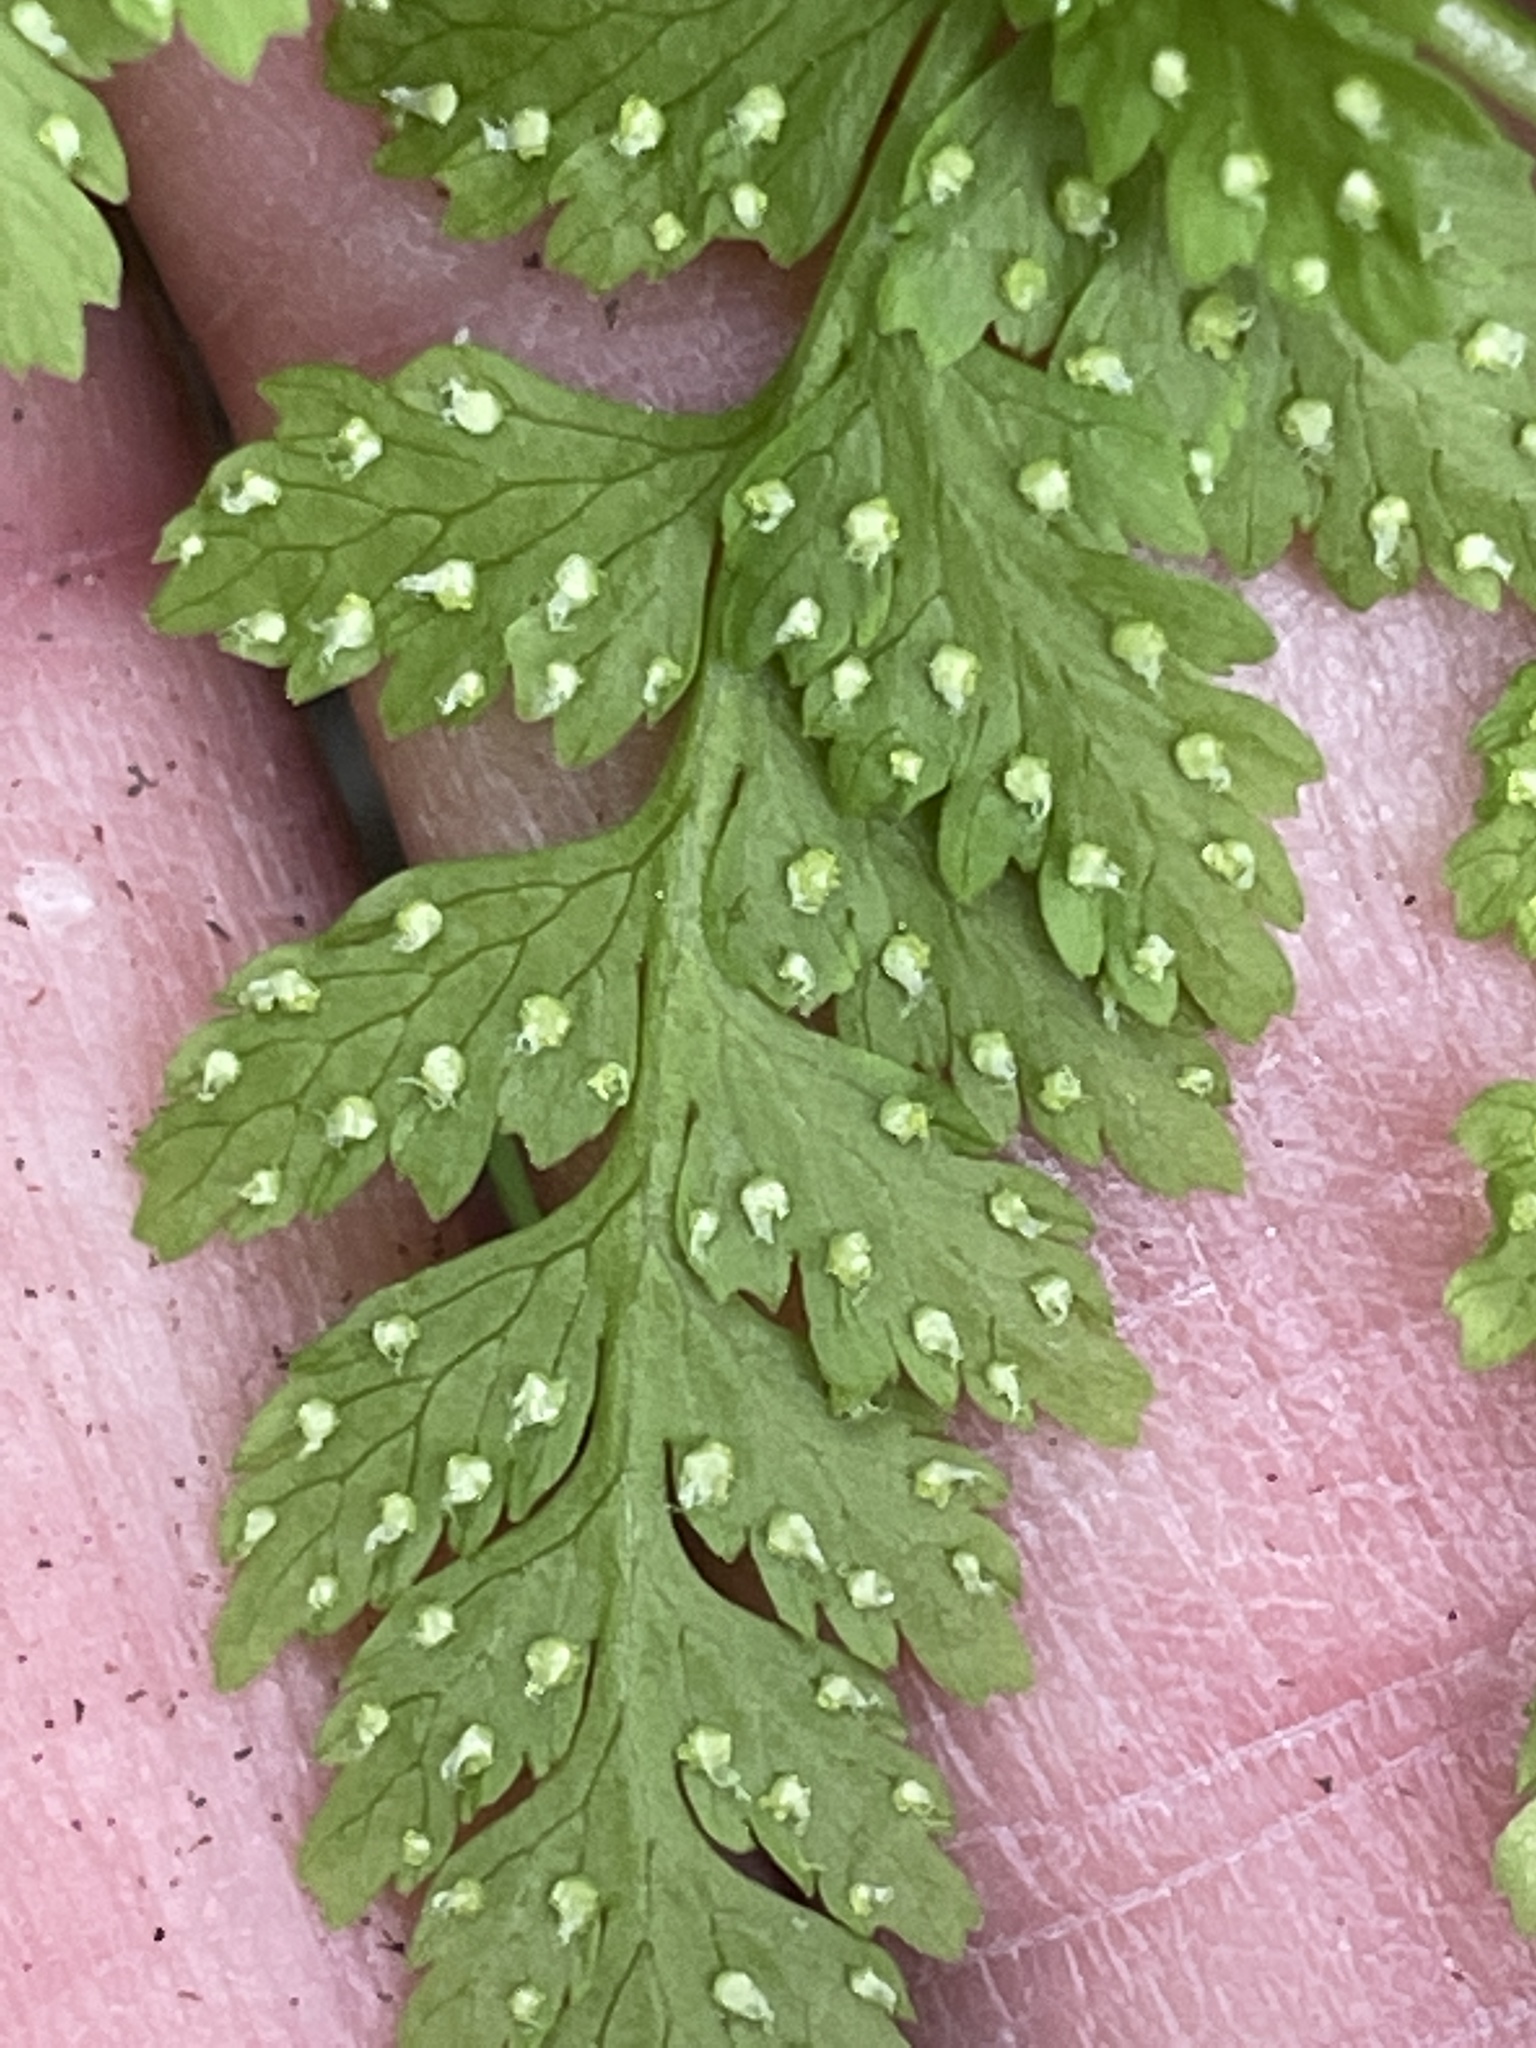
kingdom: Plantae
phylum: Tracheophyta
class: Polypodiopsida
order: Polypodiales
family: Cystopteridaceae
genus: Cystopteris
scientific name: Cystopteris fragilis
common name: Brittle bladder fern
